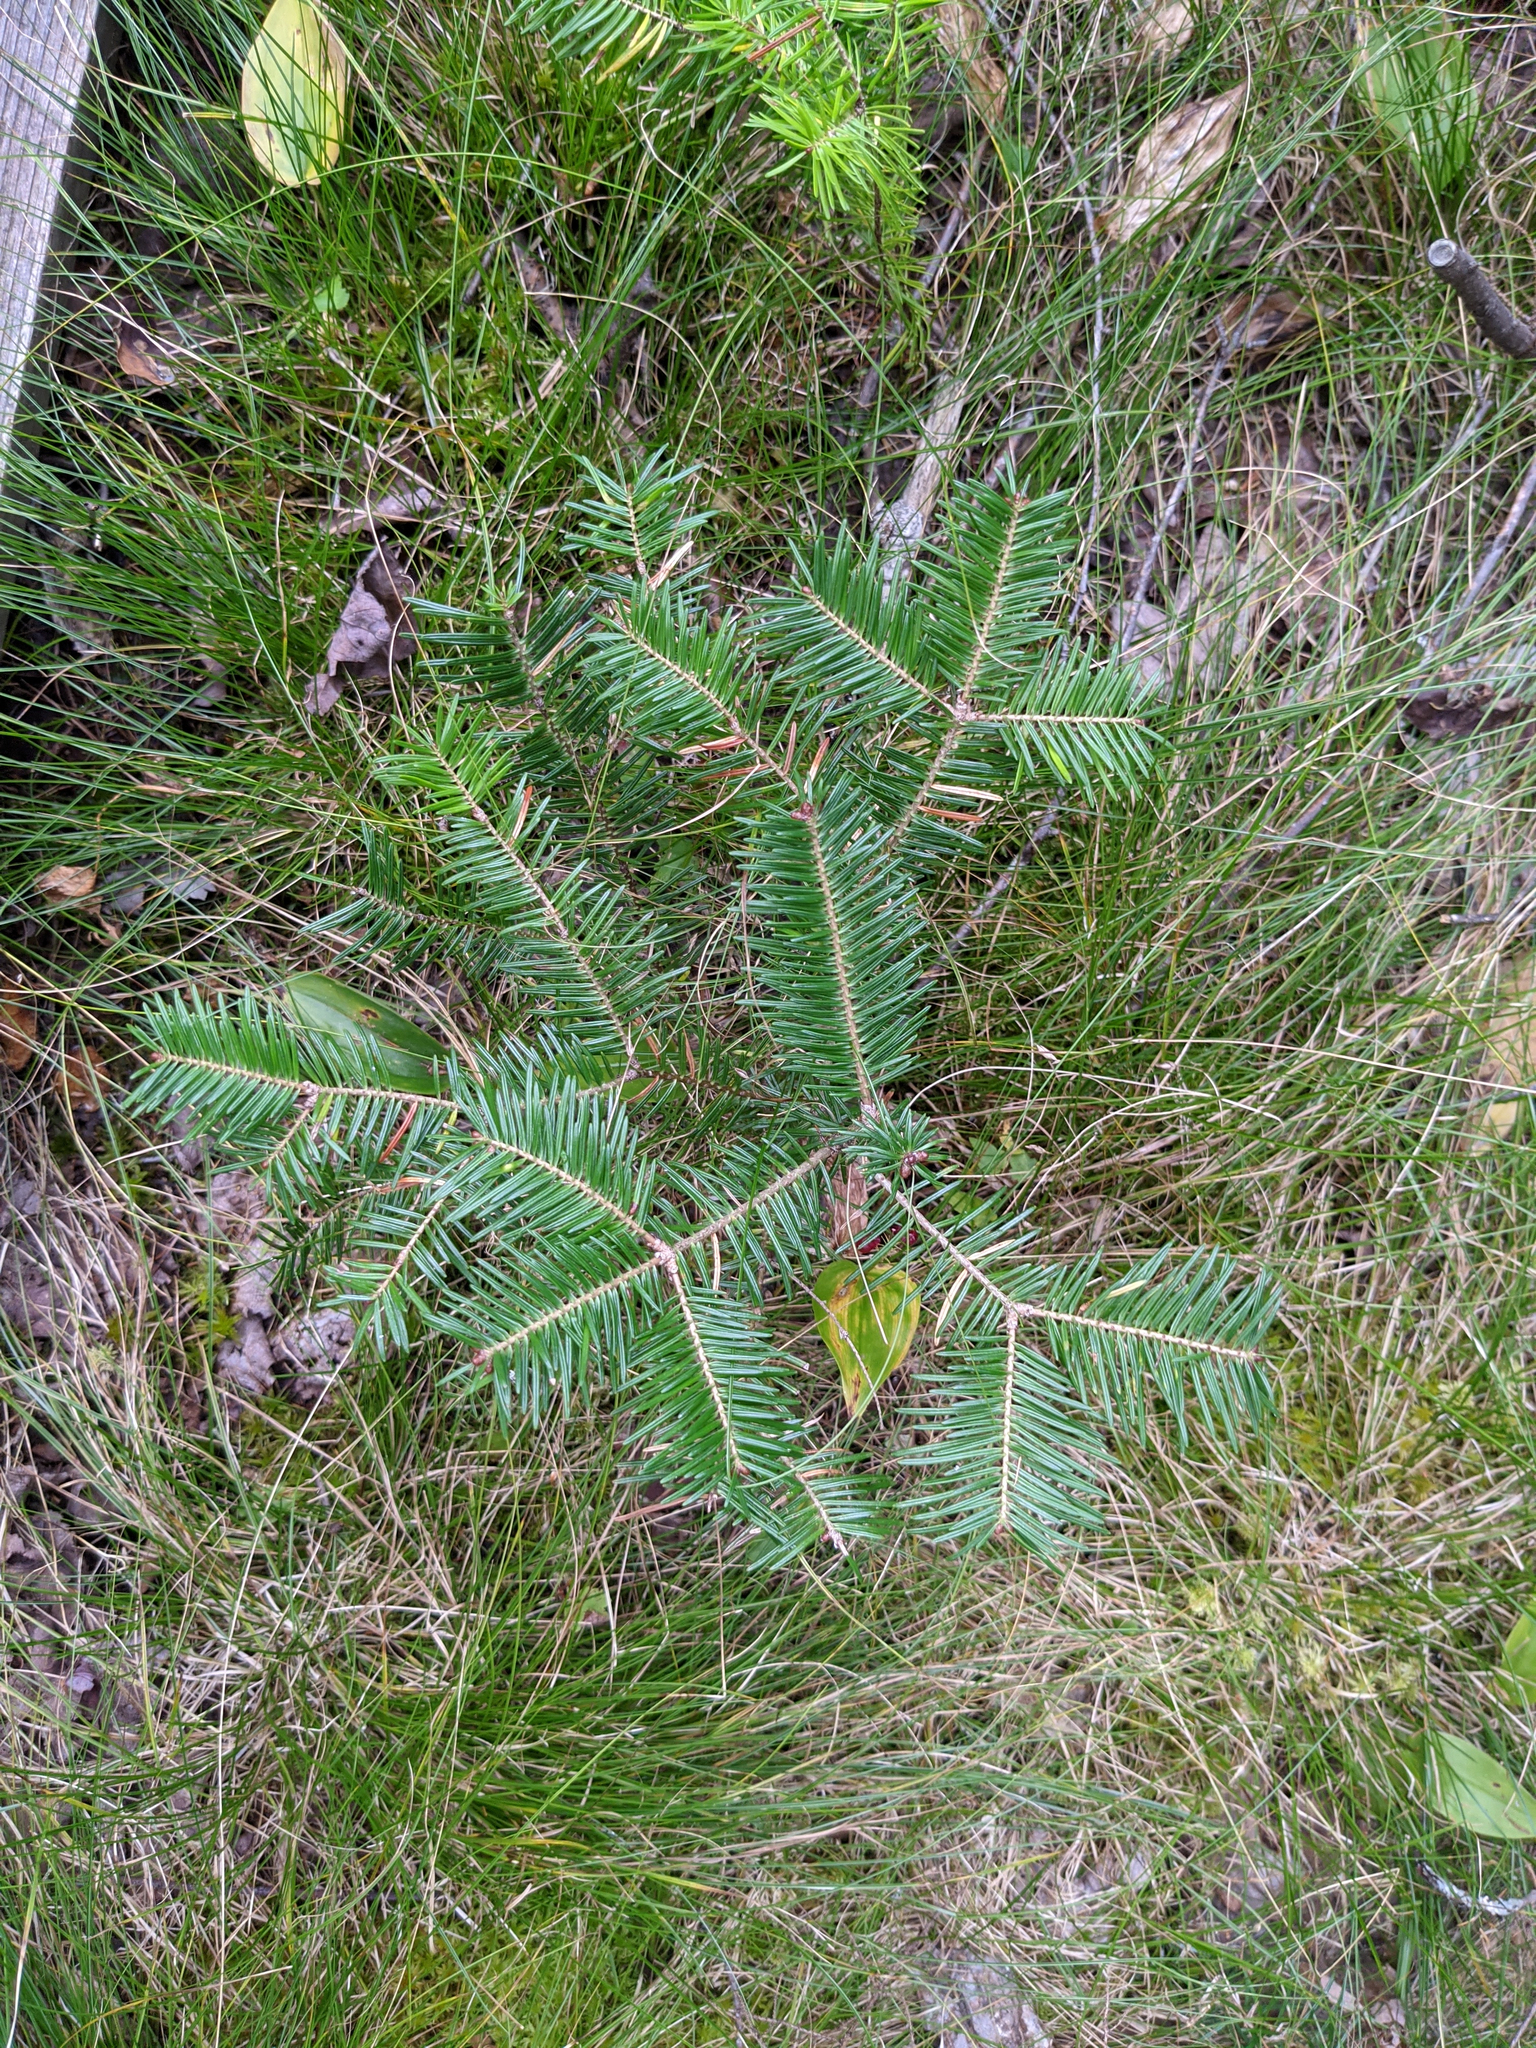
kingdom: Plantae
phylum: Tracheophyta
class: Pinopsida
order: Pinales
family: Pinaceae
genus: Abies
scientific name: Abies balsamea
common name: Balsam fir
